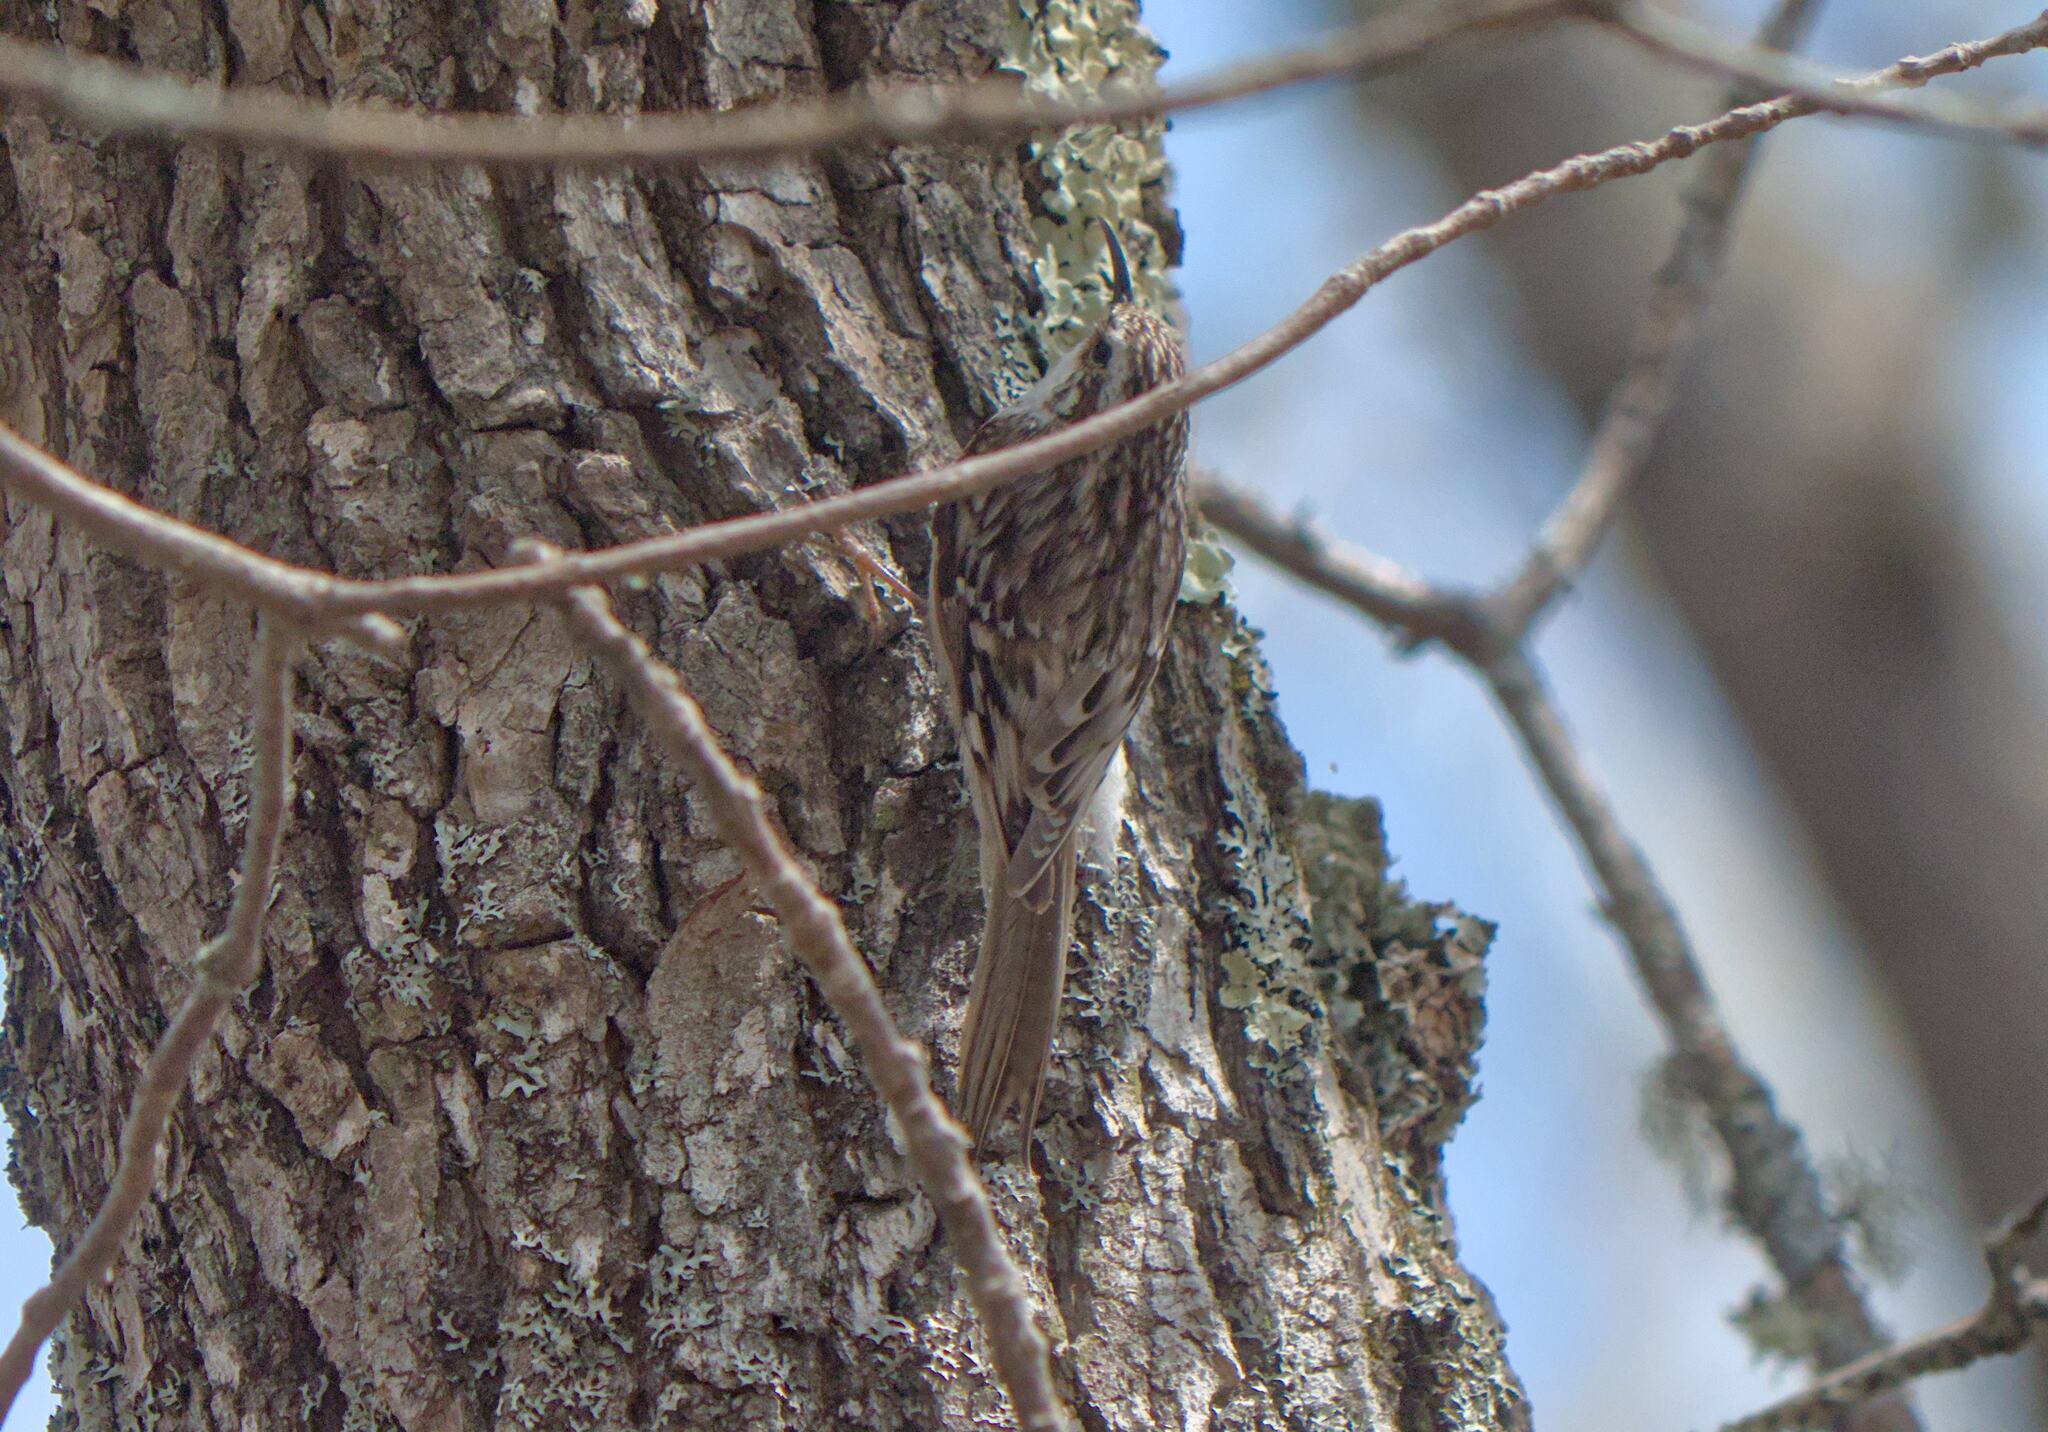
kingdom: Animalia
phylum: Chordata
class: Aves
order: Passeriformes
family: Certhiidae
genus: Certhia
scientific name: Certhia americana
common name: Brown creeper
